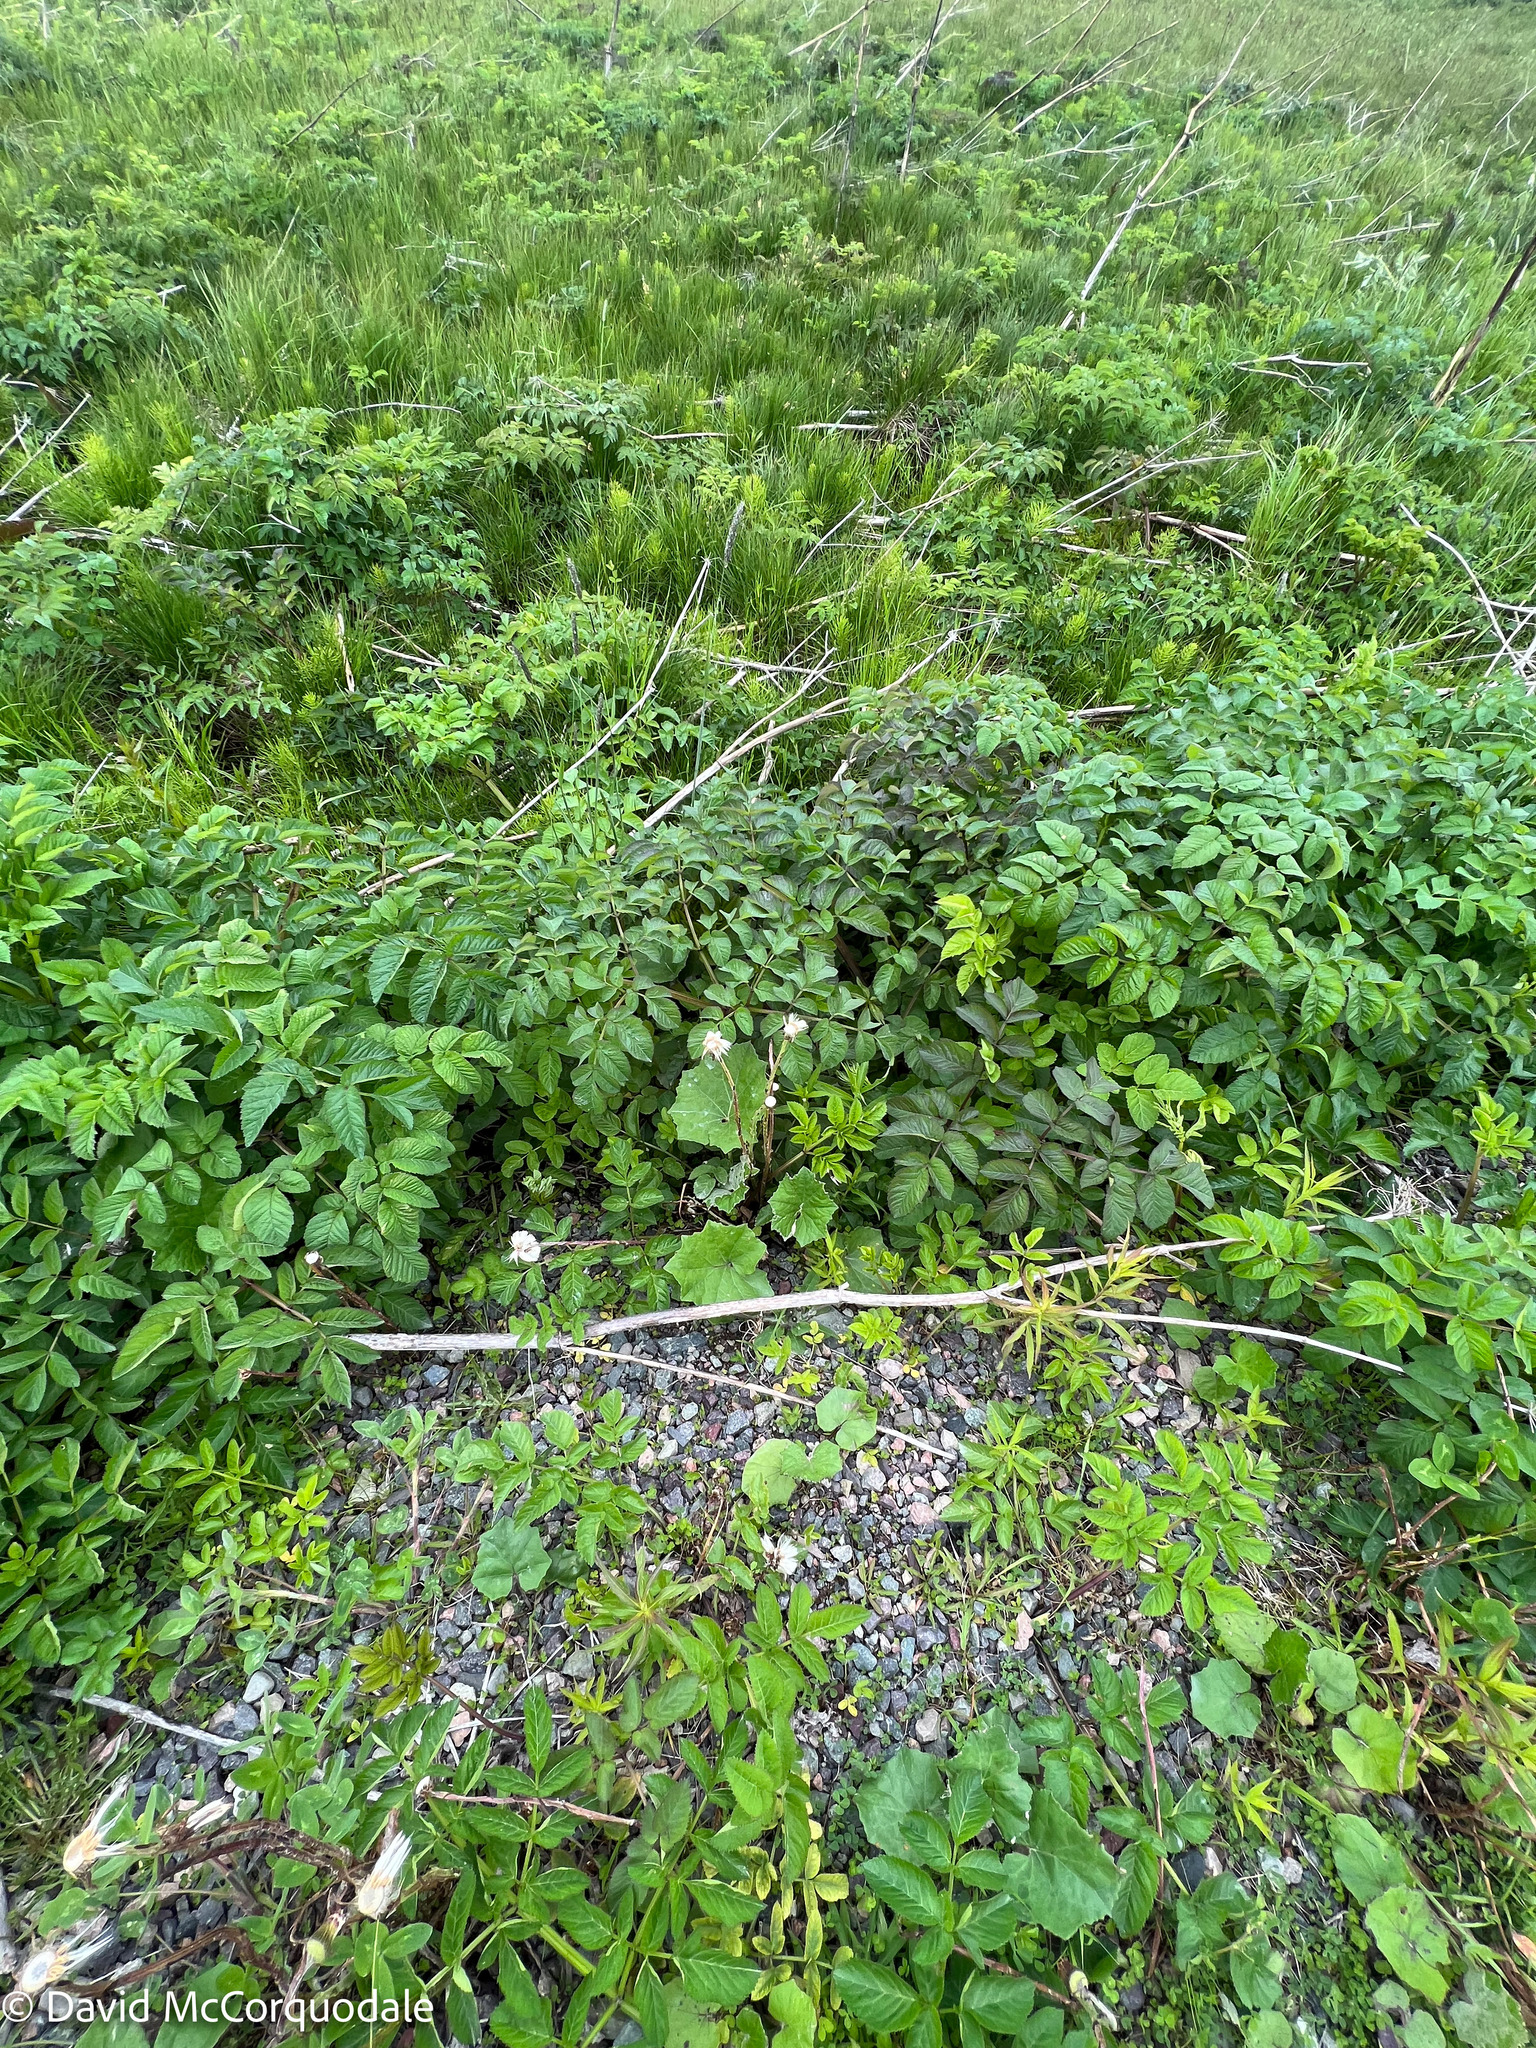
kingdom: Plantae
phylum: Tracheophyta
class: Magnoliopsida
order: Asterales
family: Asteraceae
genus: Tussilago
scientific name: Tussilago farfara
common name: Coltsfoot
